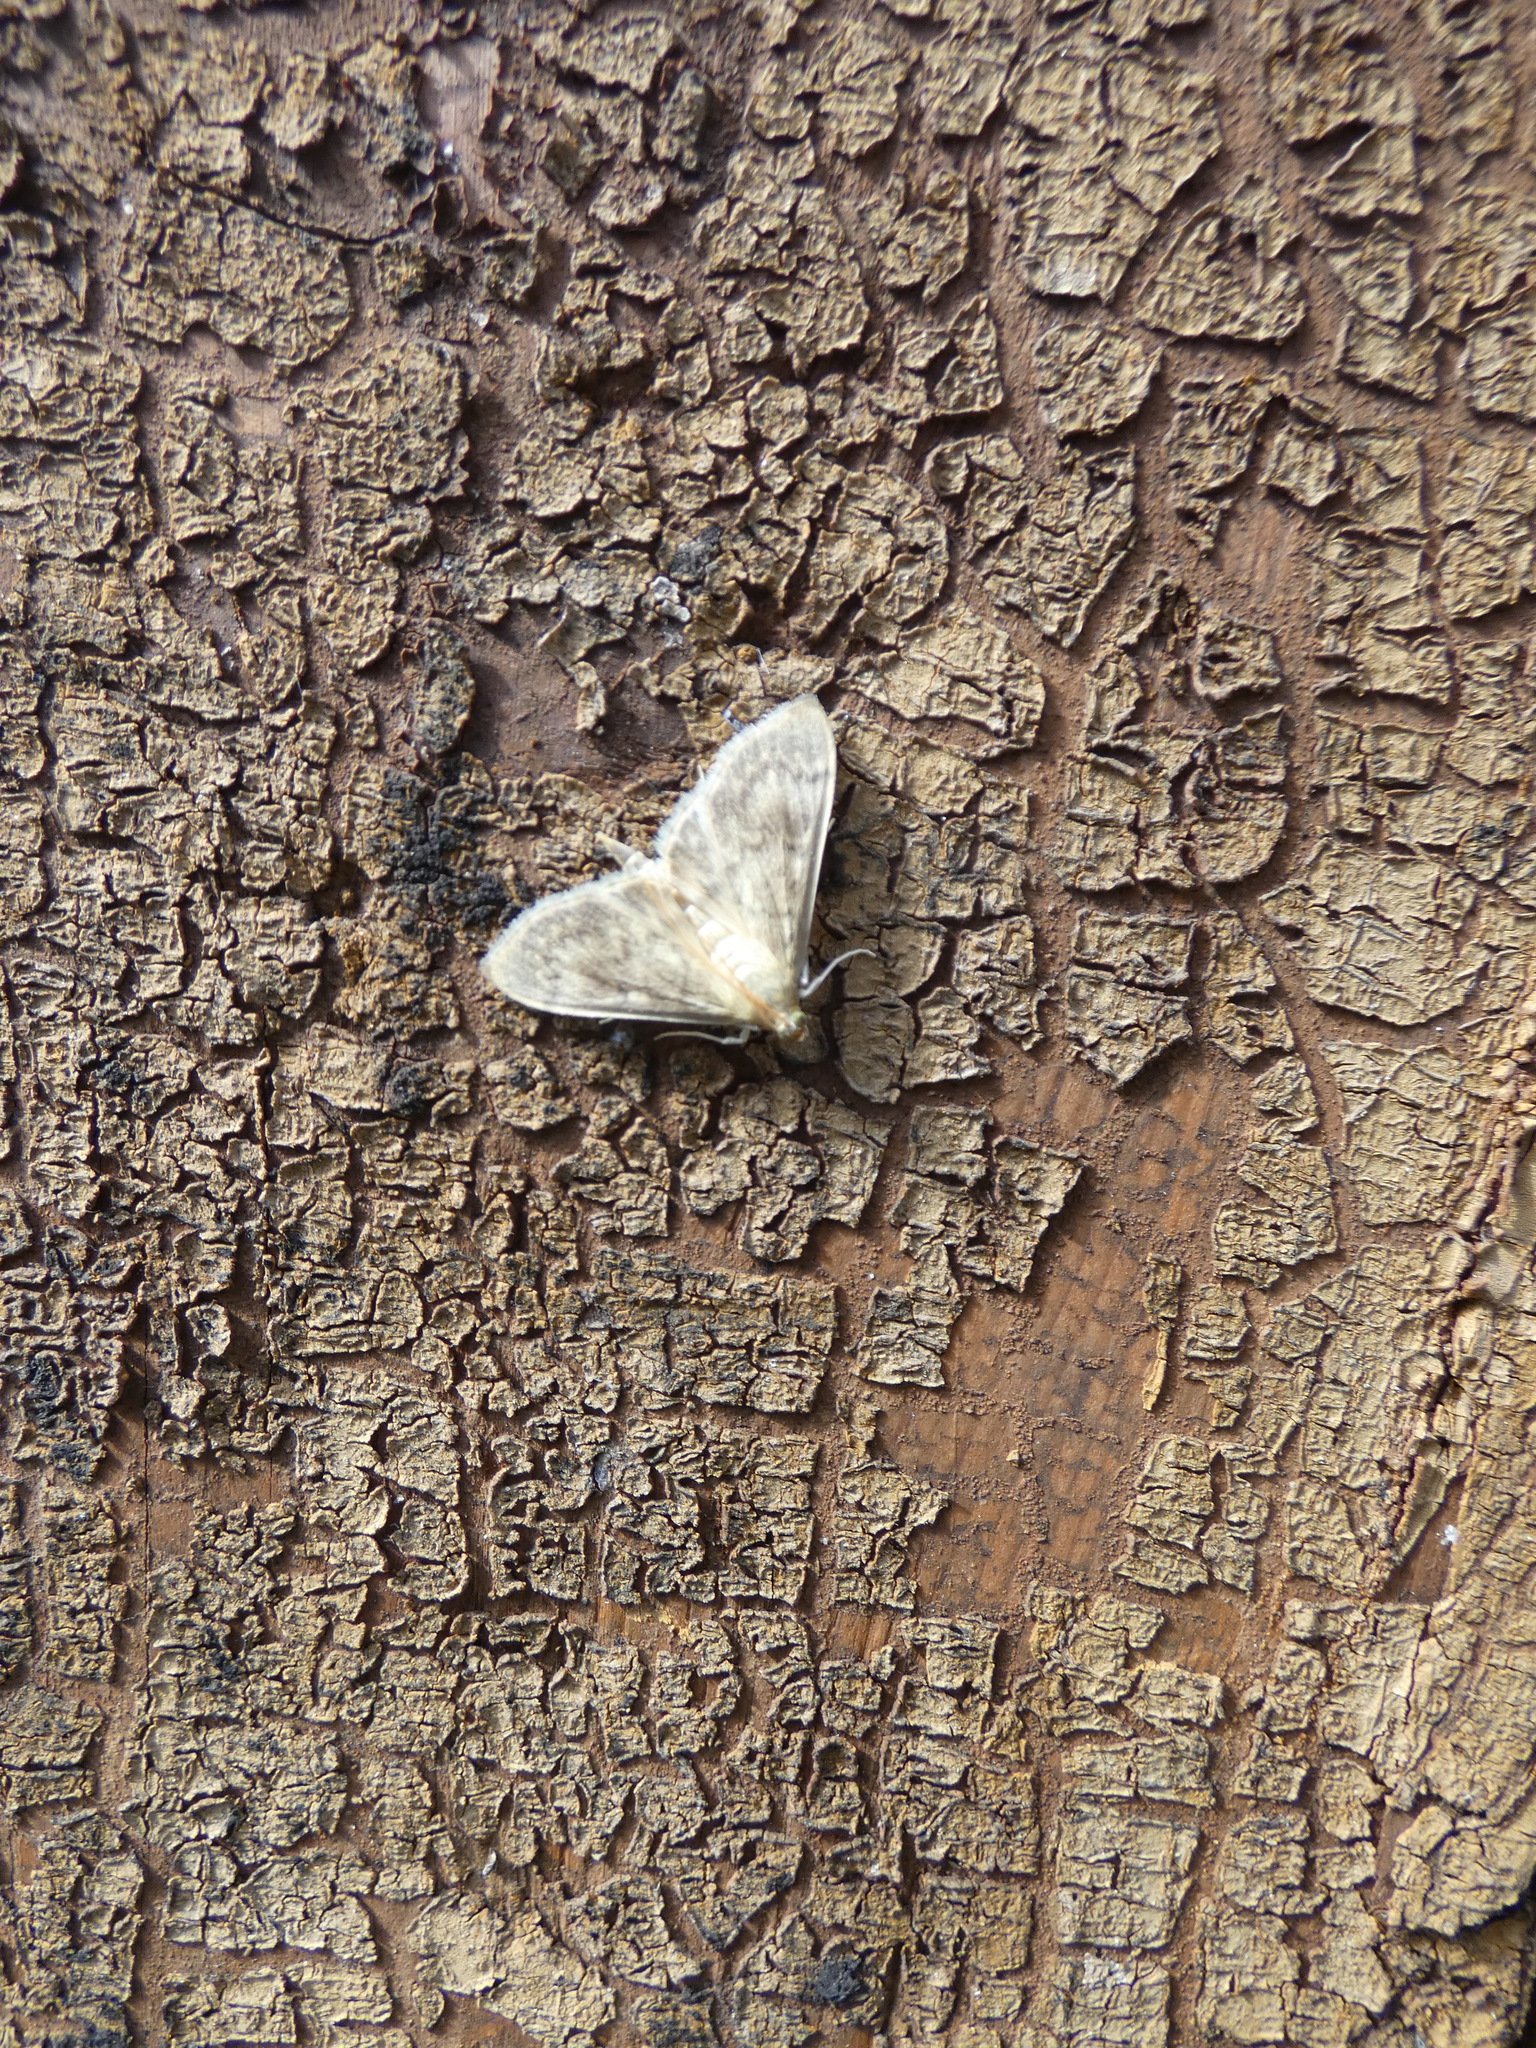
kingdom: Animalia
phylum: Arthropoda
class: Insecta
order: Lepidoptera
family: Crambidae
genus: Patania
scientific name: Patania ruralis
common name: Mother of pearl
